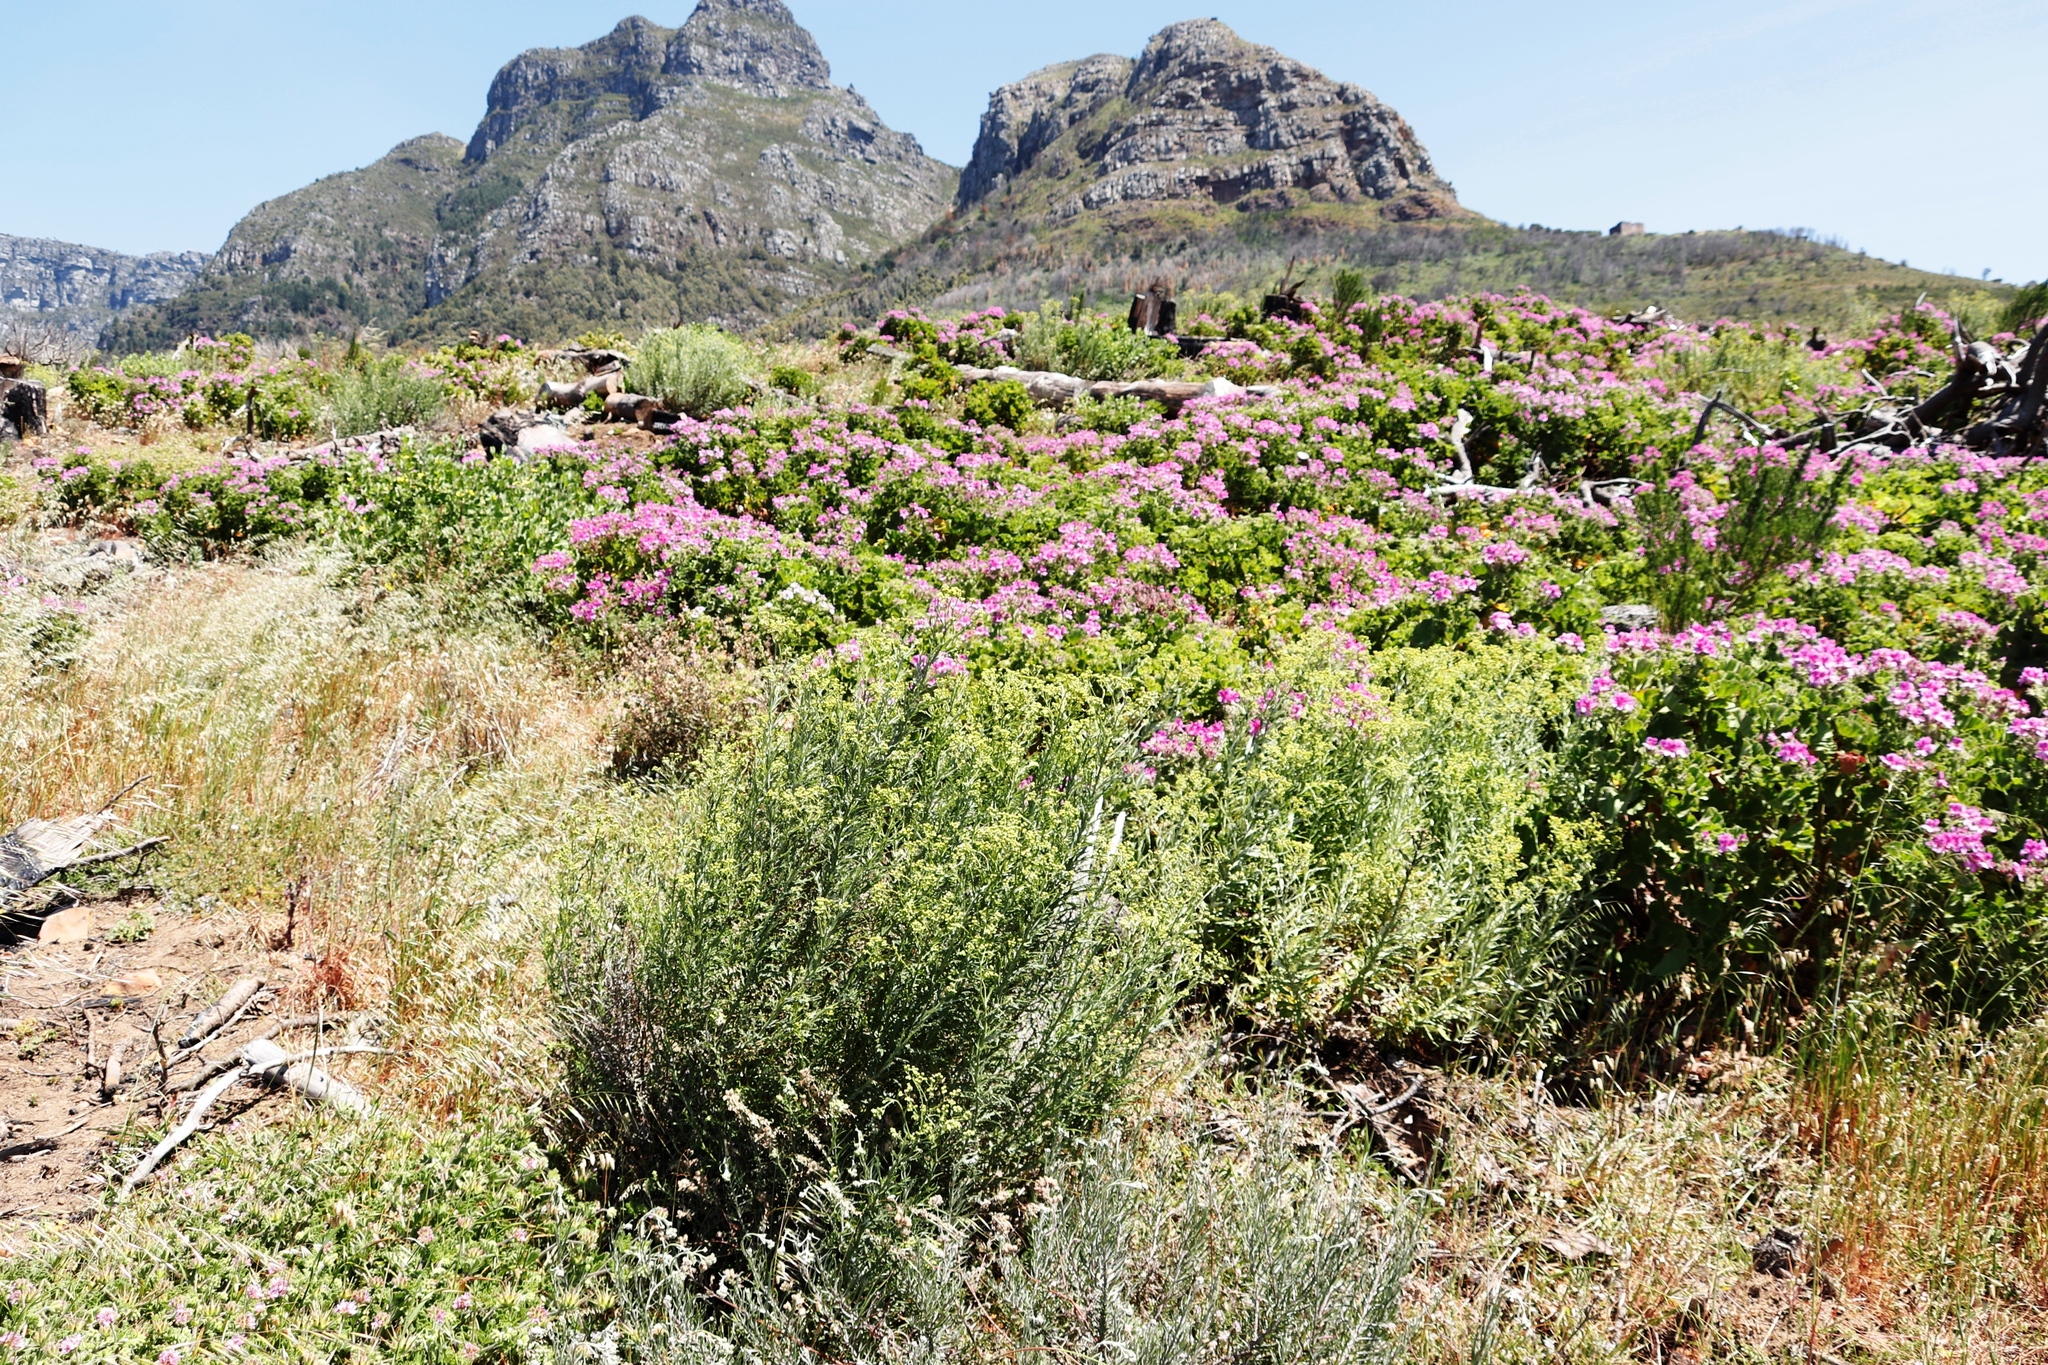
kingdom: Plantae
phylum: Tracheophyta
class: Magnoliopsida
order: Geraniales
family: Geraniaceae
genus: Pelargonium
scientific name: Pelargonium cucullatum
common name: Tree pelargonium
